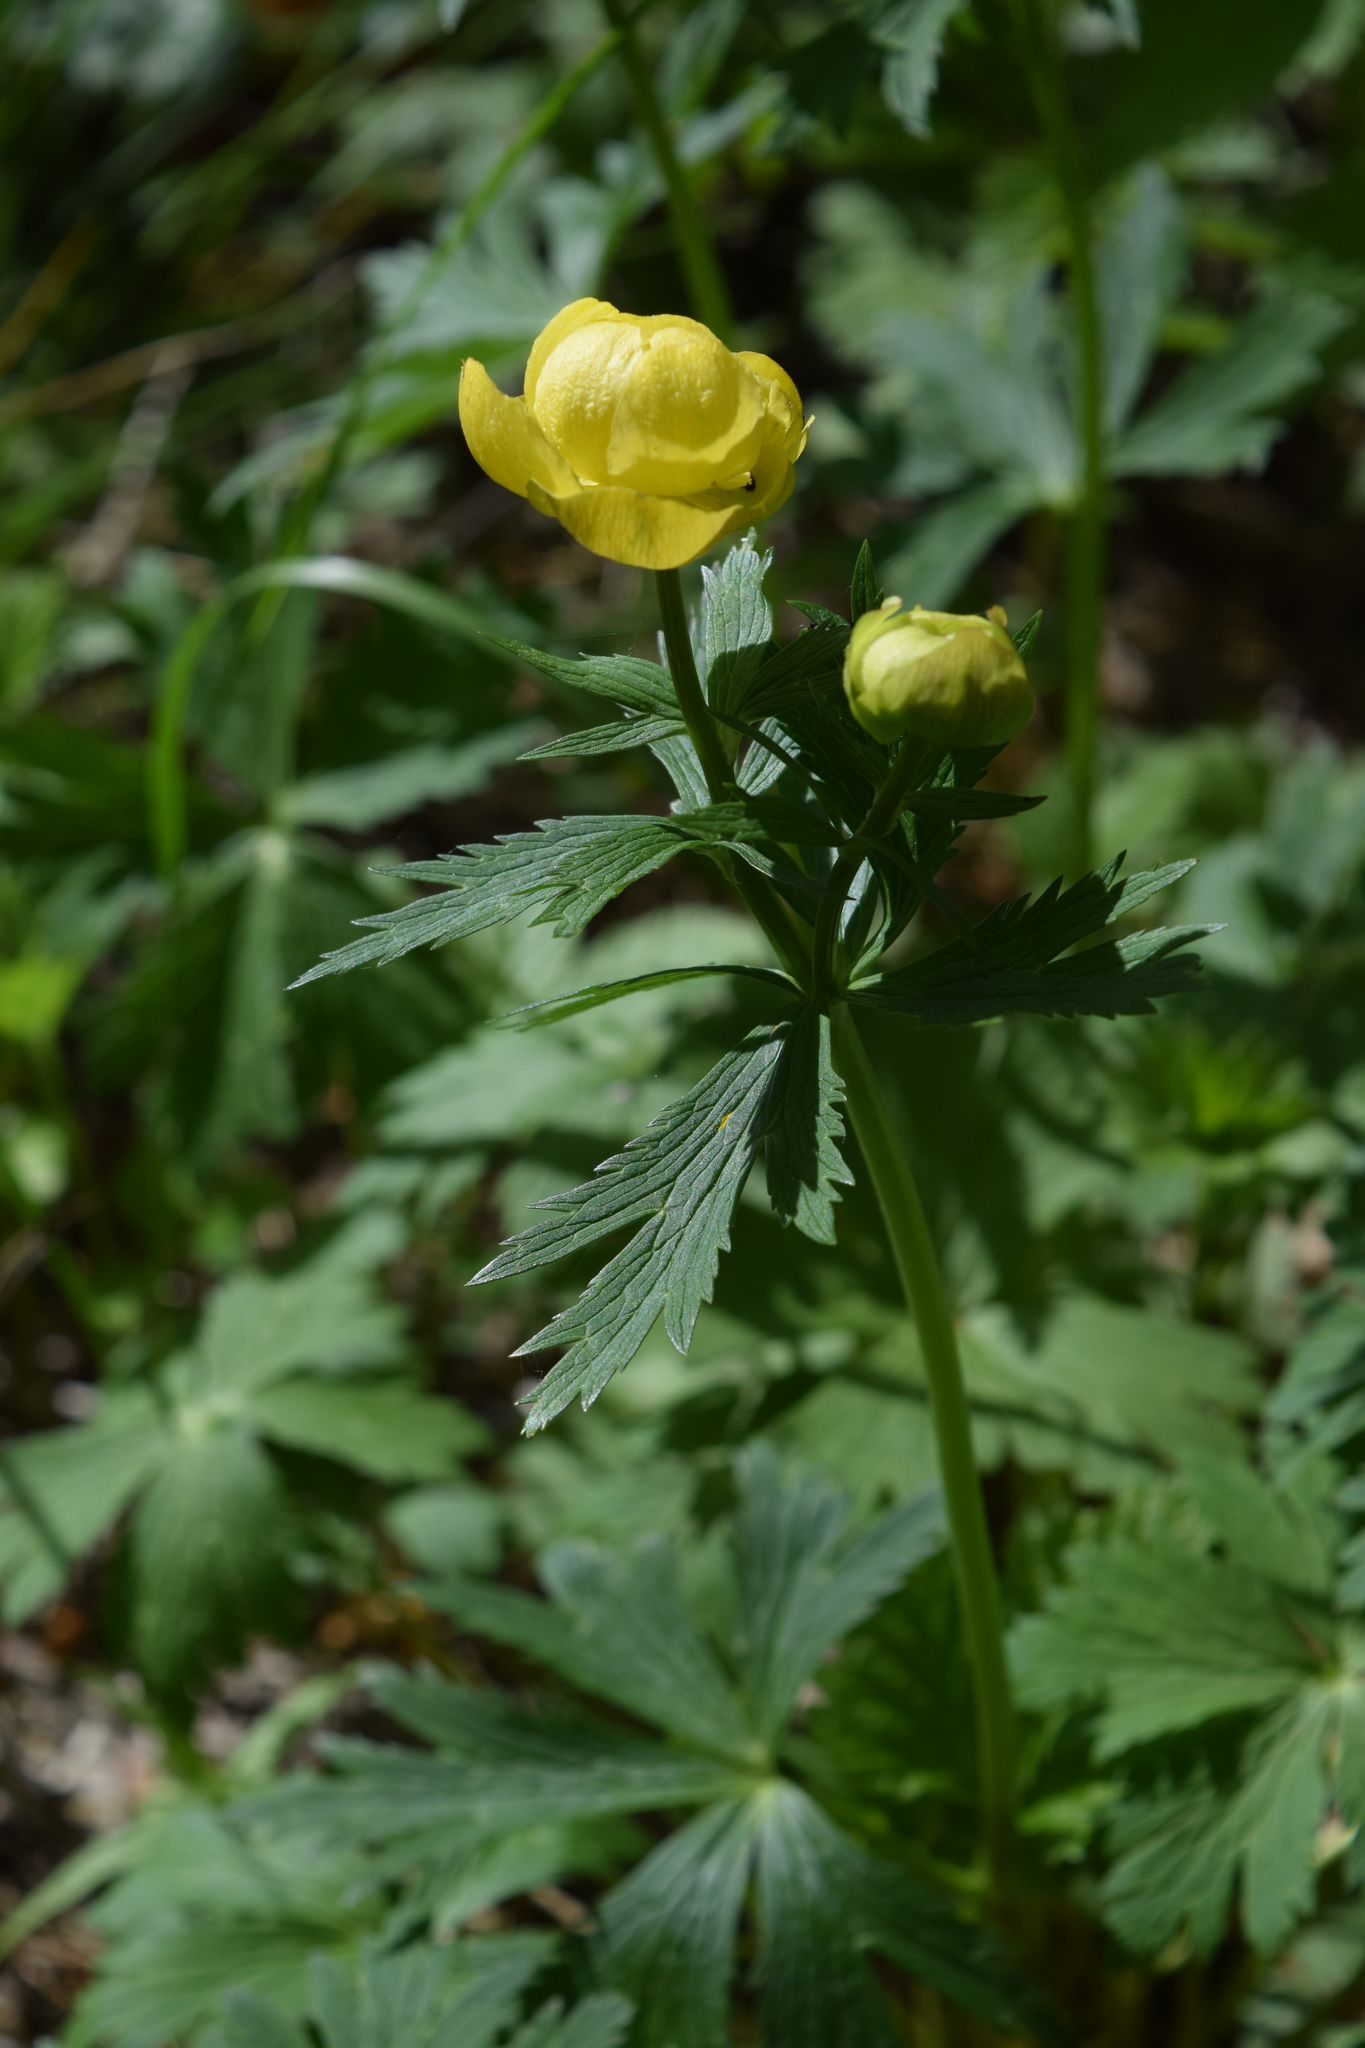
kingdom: Plantae
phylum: Tracheophyta
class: Magnoliopsida
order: Ranunculales
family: Ranunculaceae
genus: Trollius
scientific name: Trollius europaeus
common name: European globeflower
